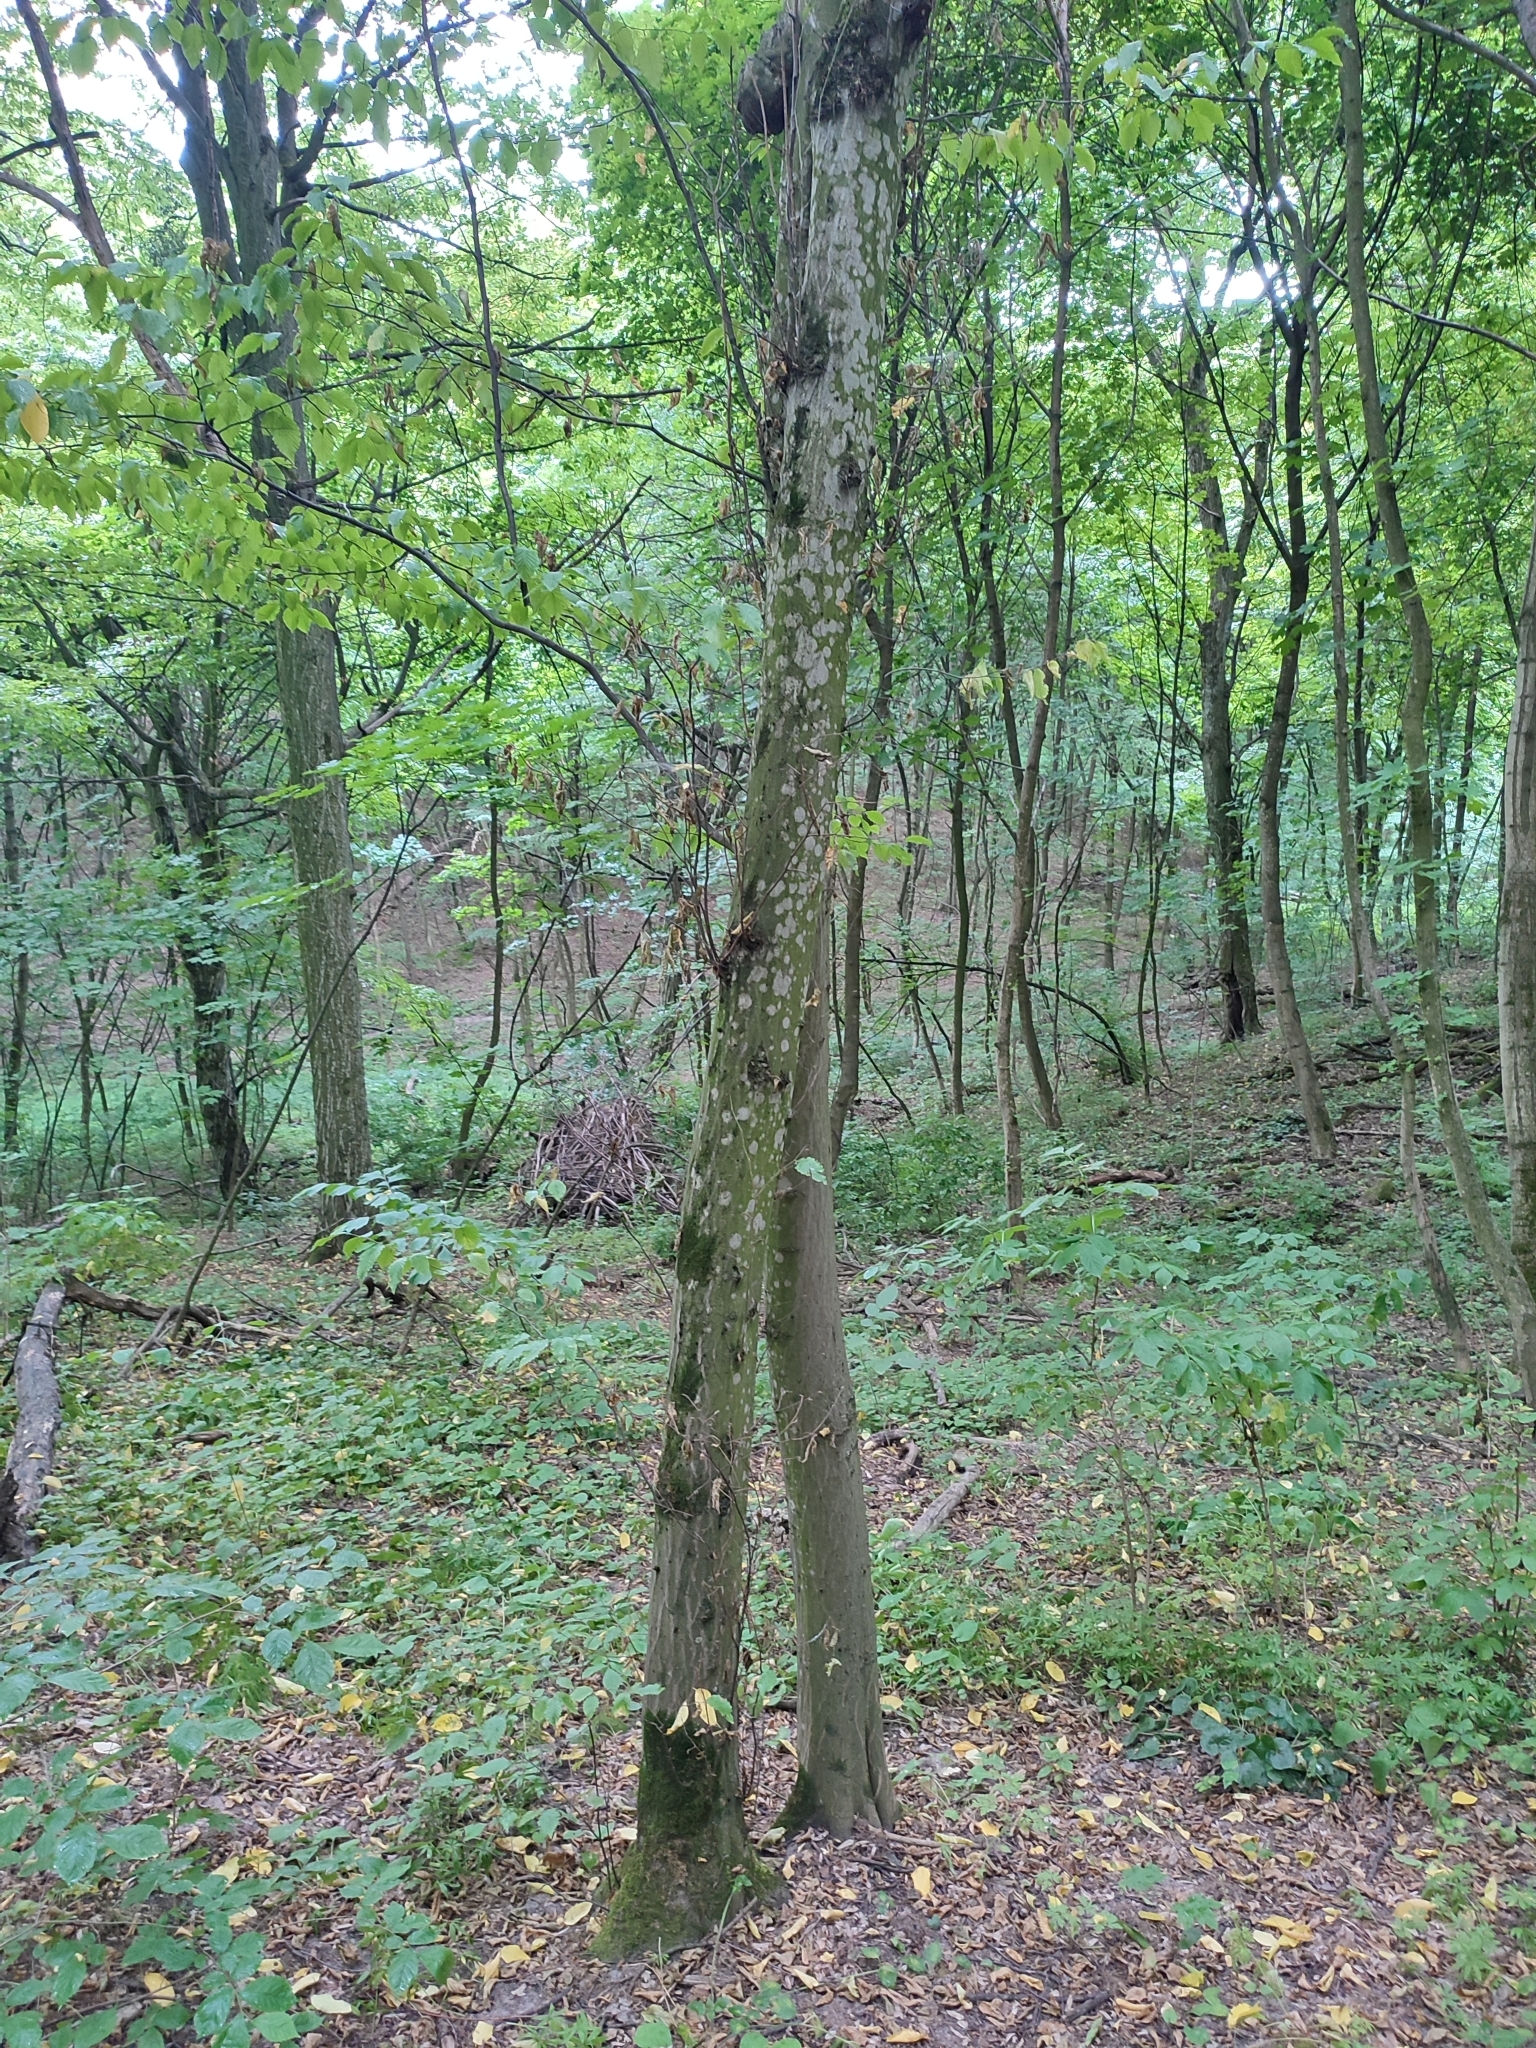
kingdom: Plantae
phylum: Tracheophyta
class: Magnoliopsida
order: Fagales
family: Betulaceae
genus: Carpinus
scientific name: Carpinus betulus
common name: Hornbeam
